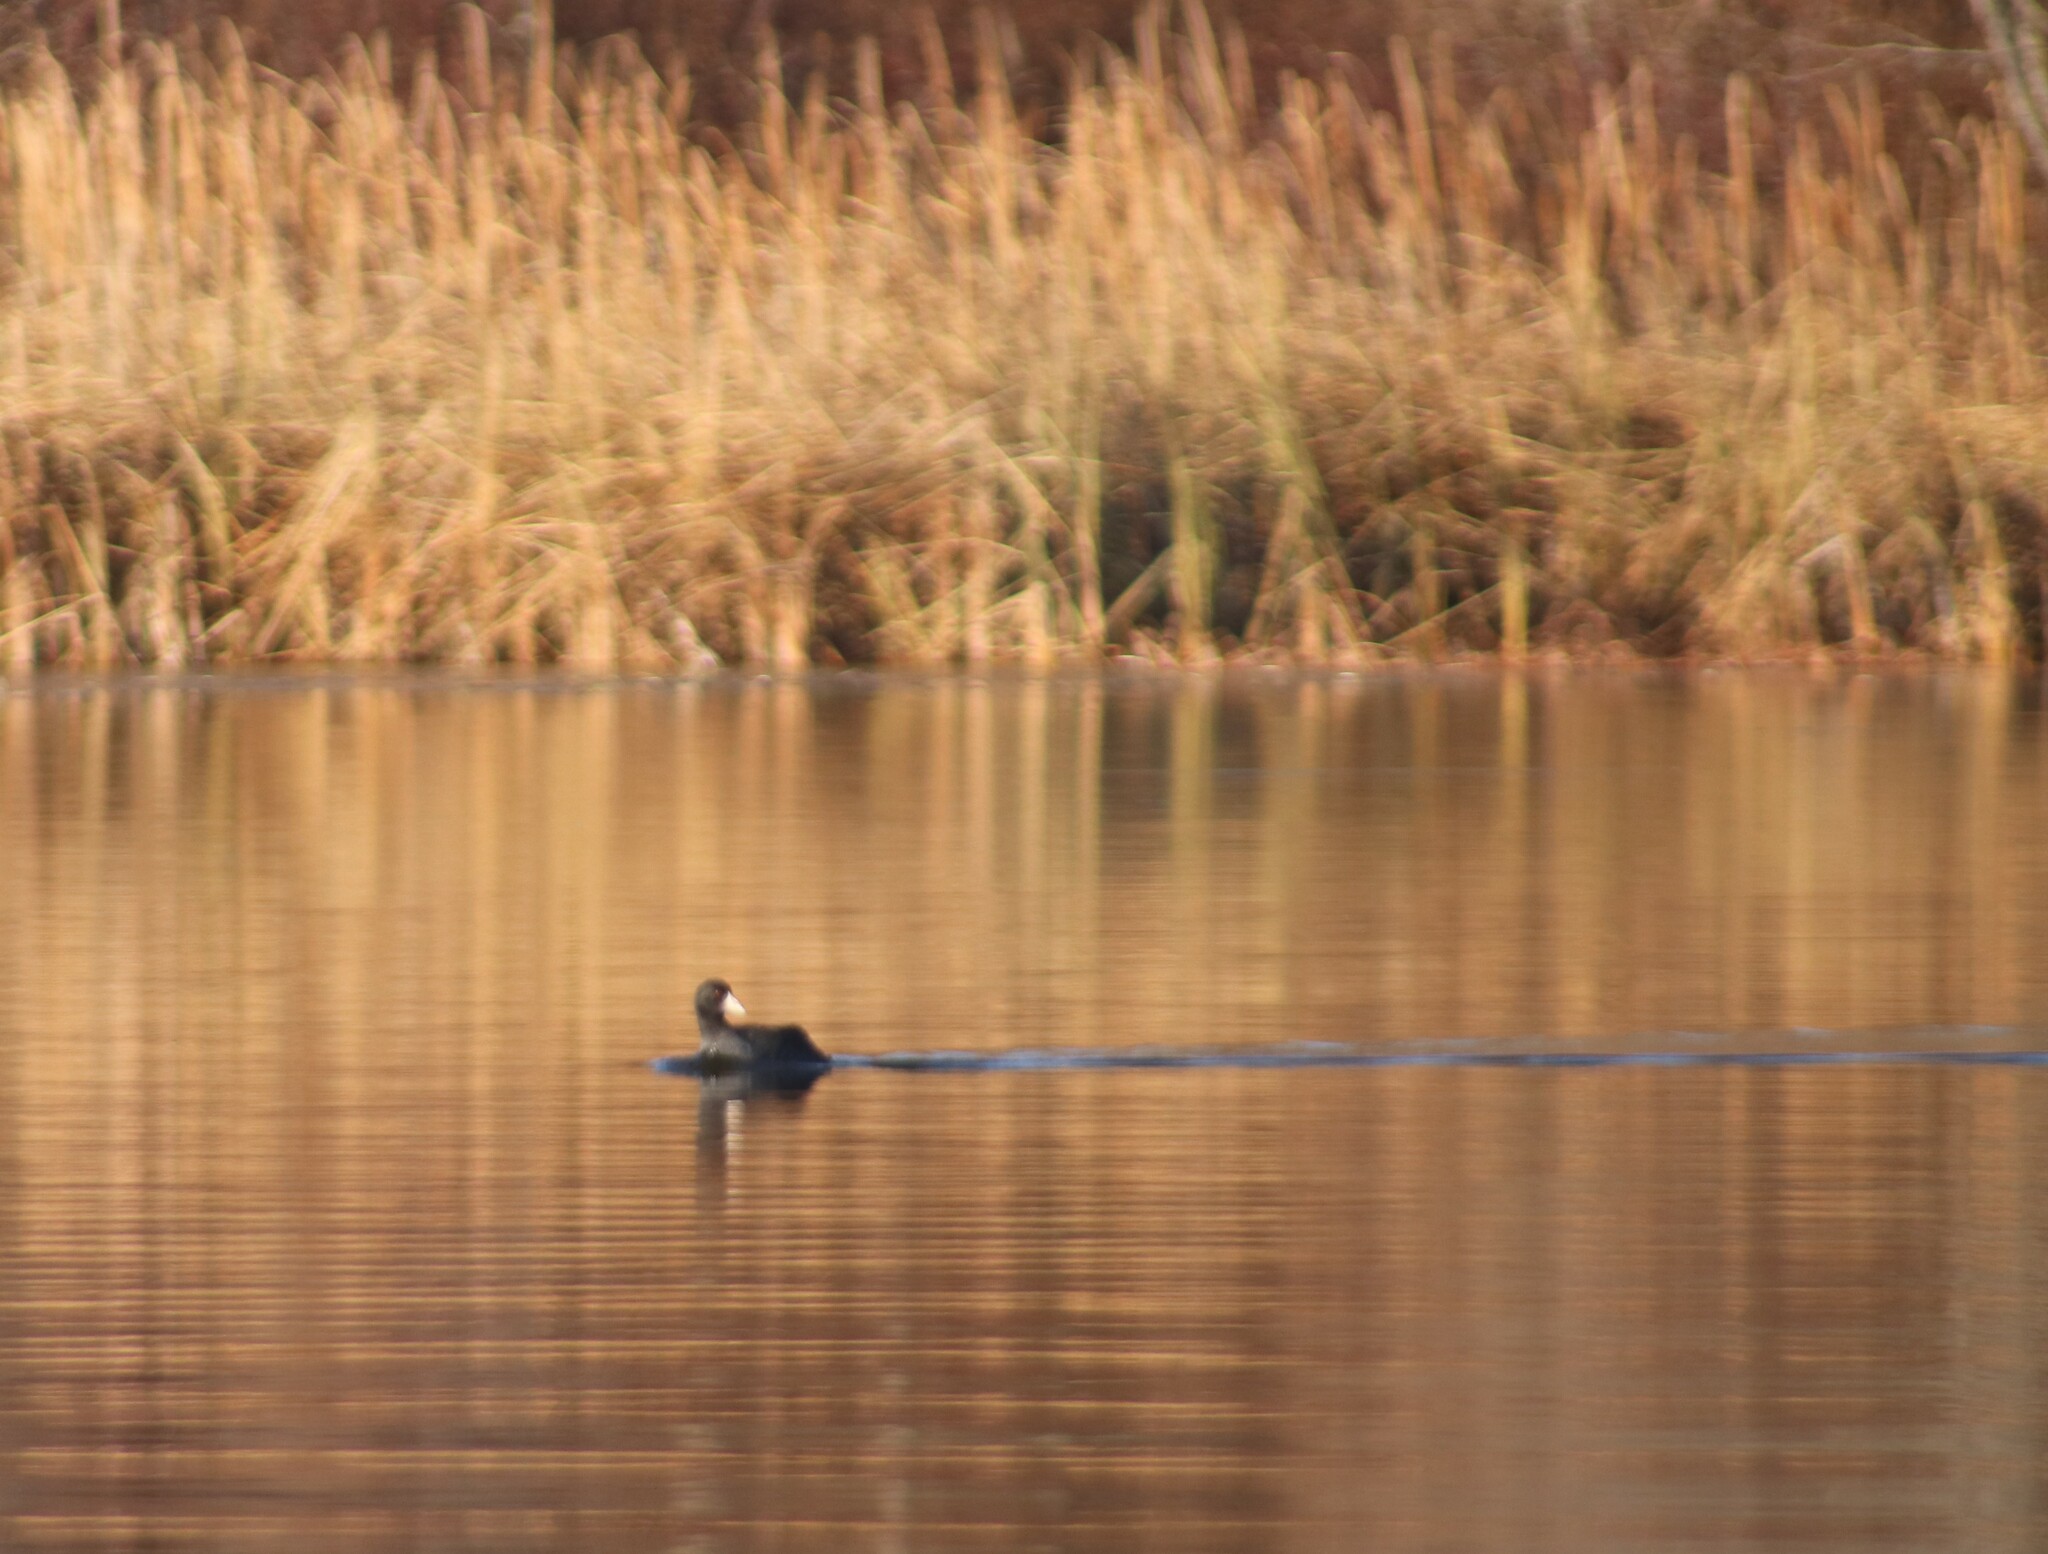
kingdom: Animalia
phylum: Chordata
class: Aves
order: Gruiformes
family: Rallidae
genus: Fulica
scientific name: Fulica americana
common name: American coot
